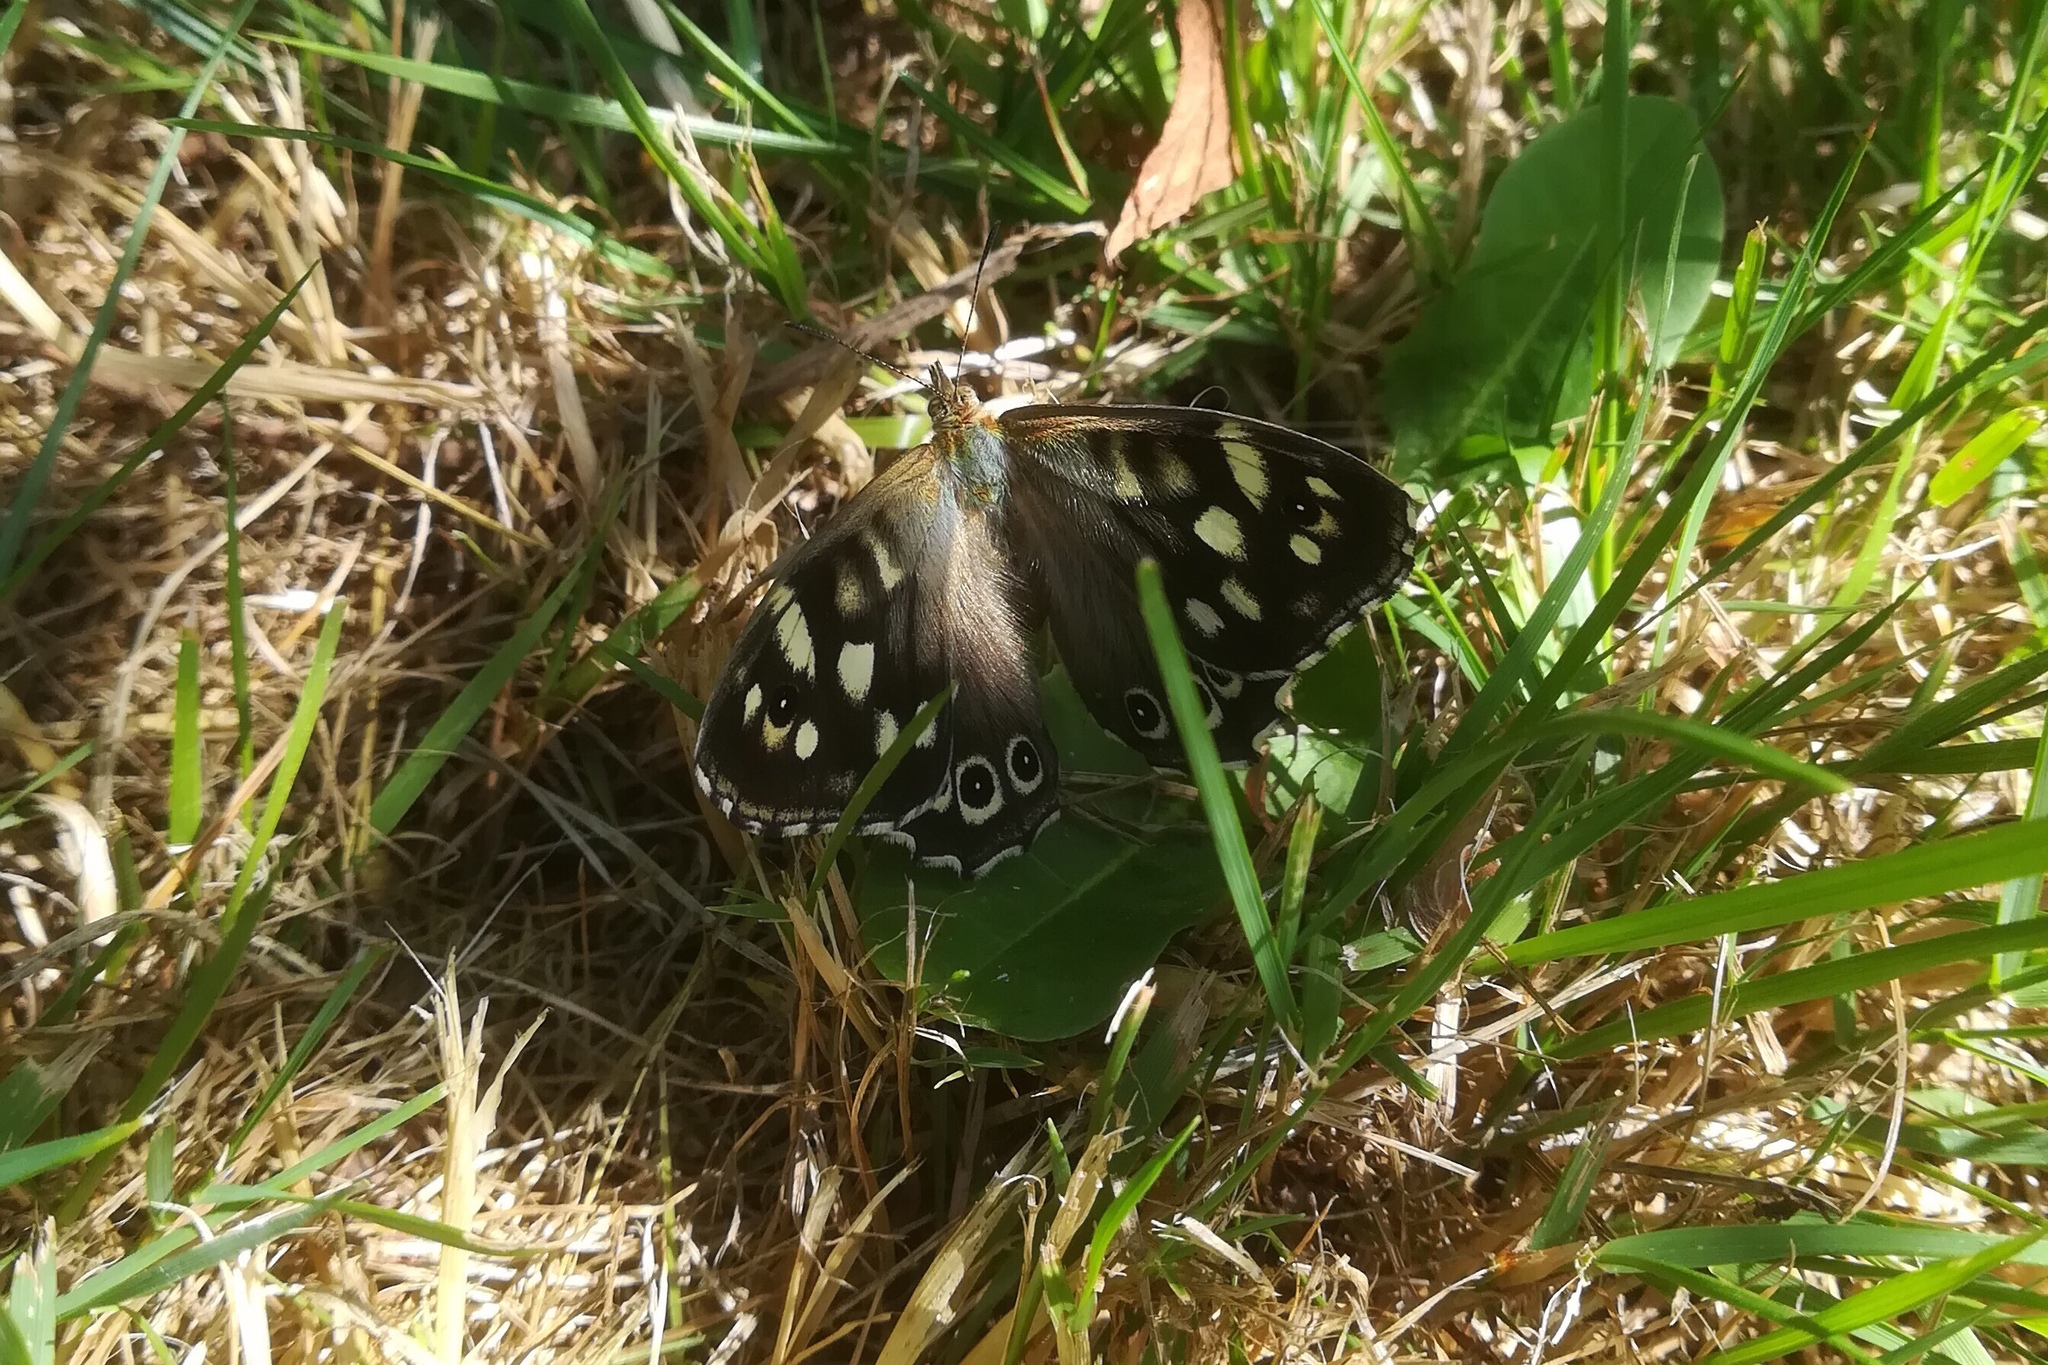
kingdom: Animalia
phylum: Arthropoda
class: Insecta
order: Lepidoptera
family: Nymphalidae
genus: Pararge
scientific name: Pararge aegeria
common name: Speckled wood
